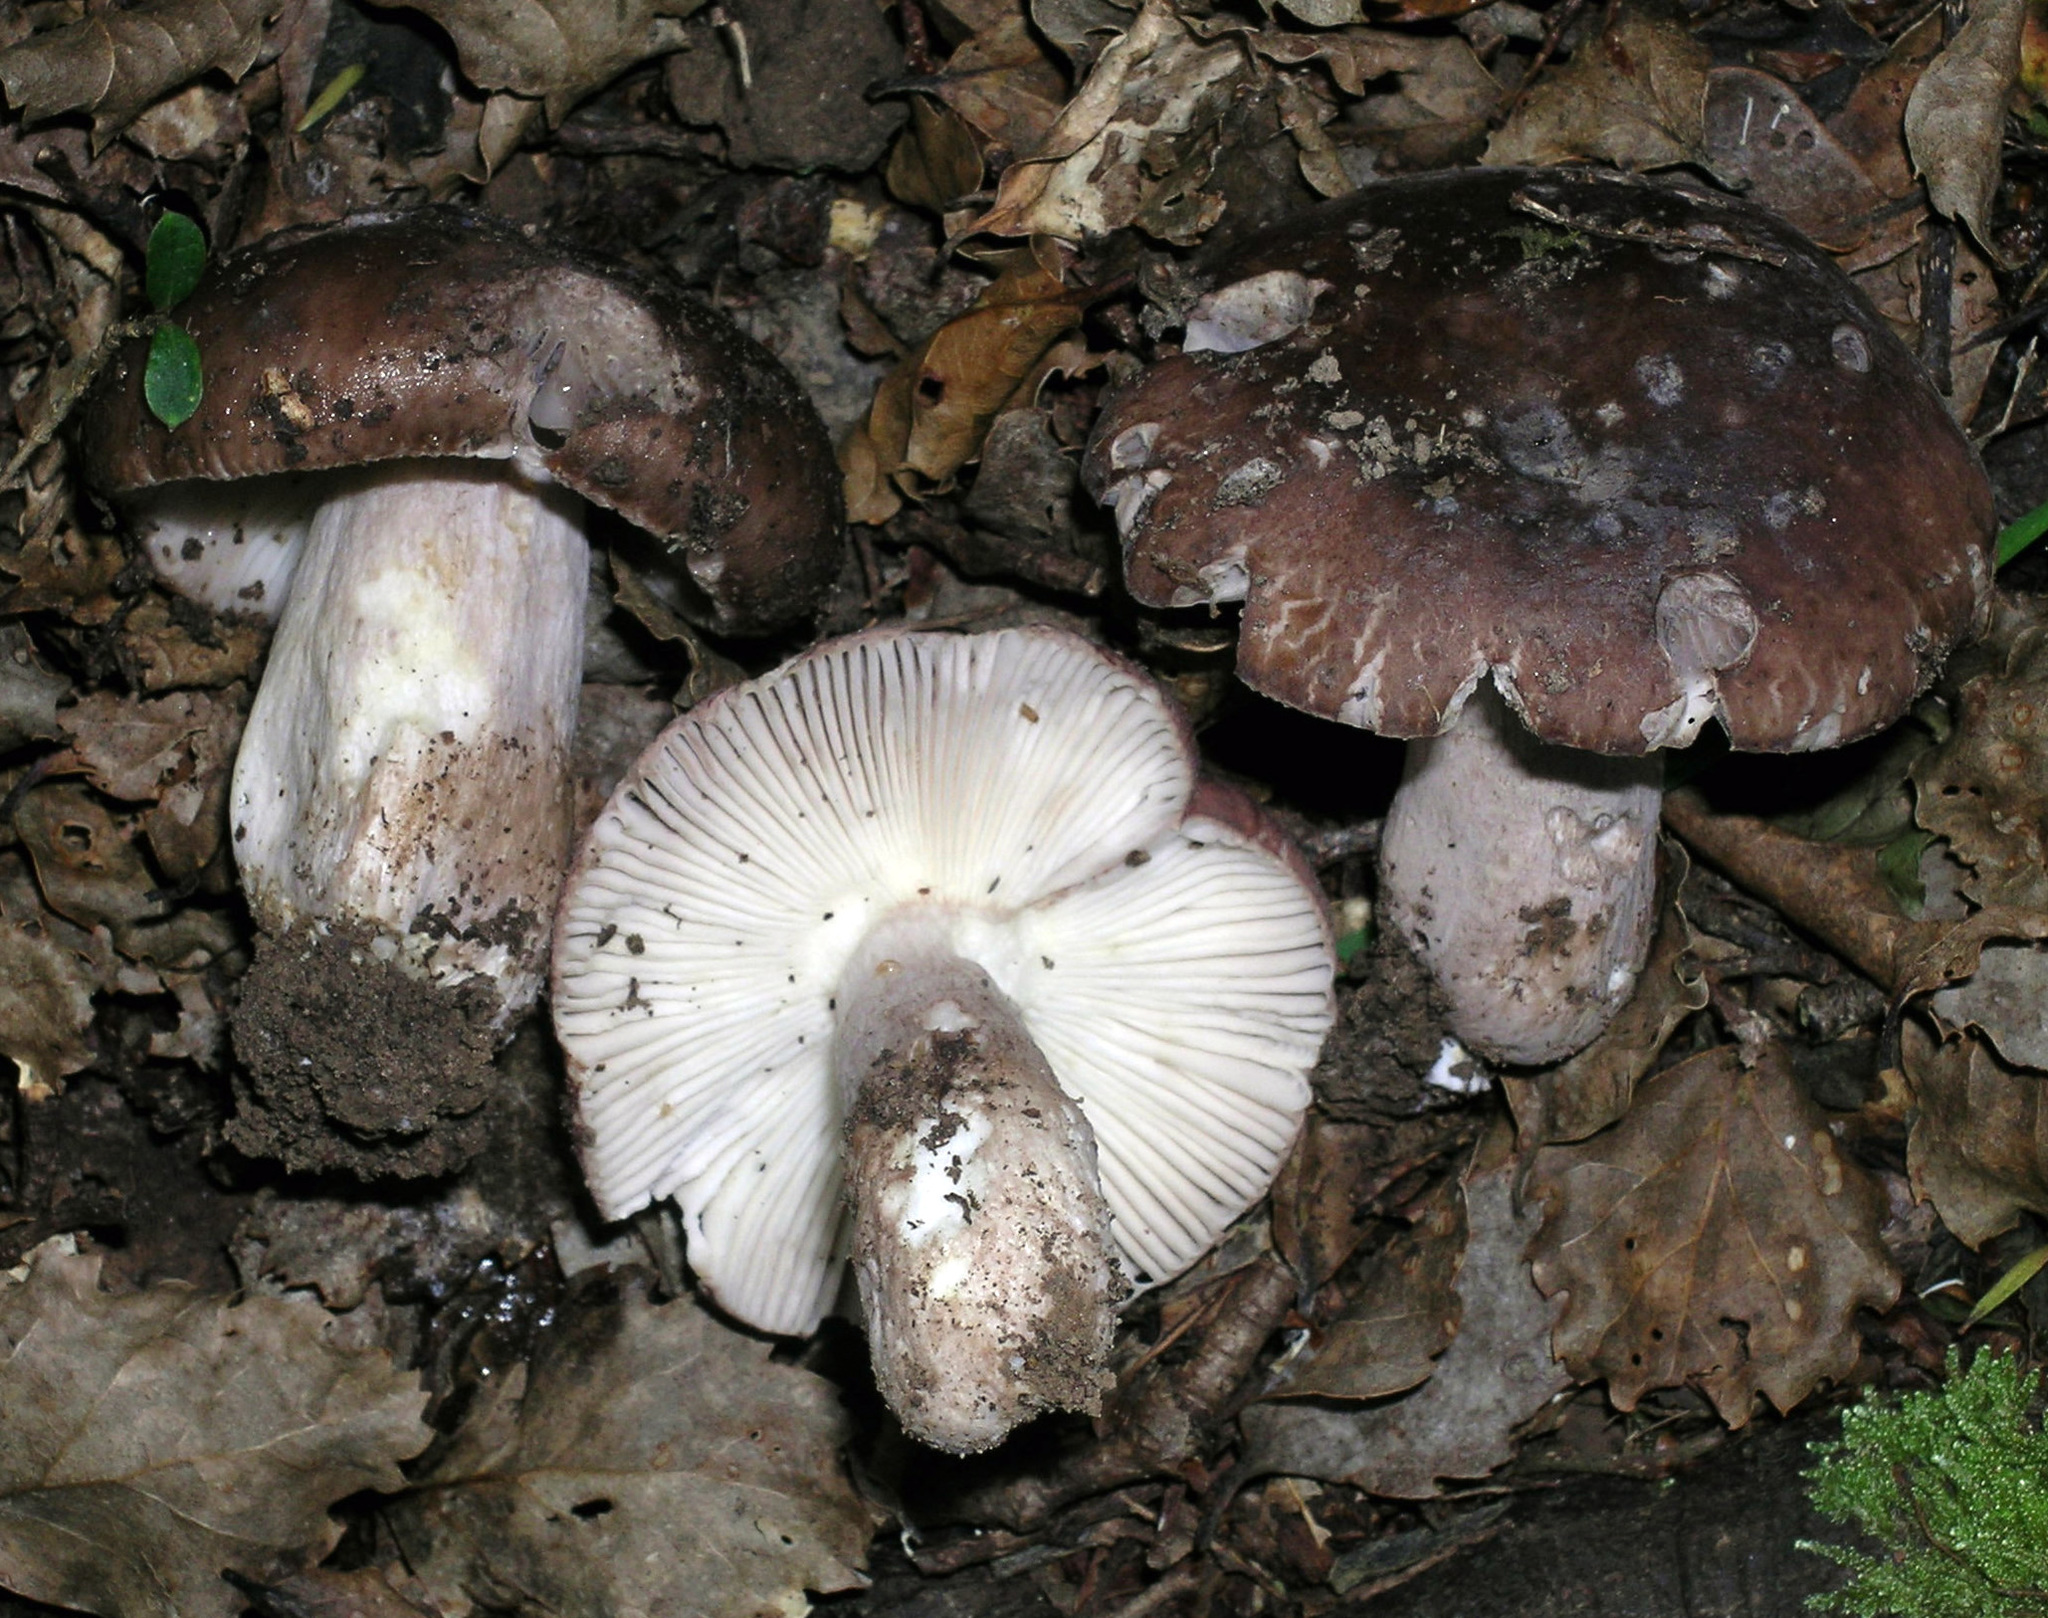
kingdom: Fungi
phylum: Basidiomycota
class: Agaricomycetes
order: Russulales
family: Russulaceae
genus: Russula
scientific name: Russula griseostipitata
